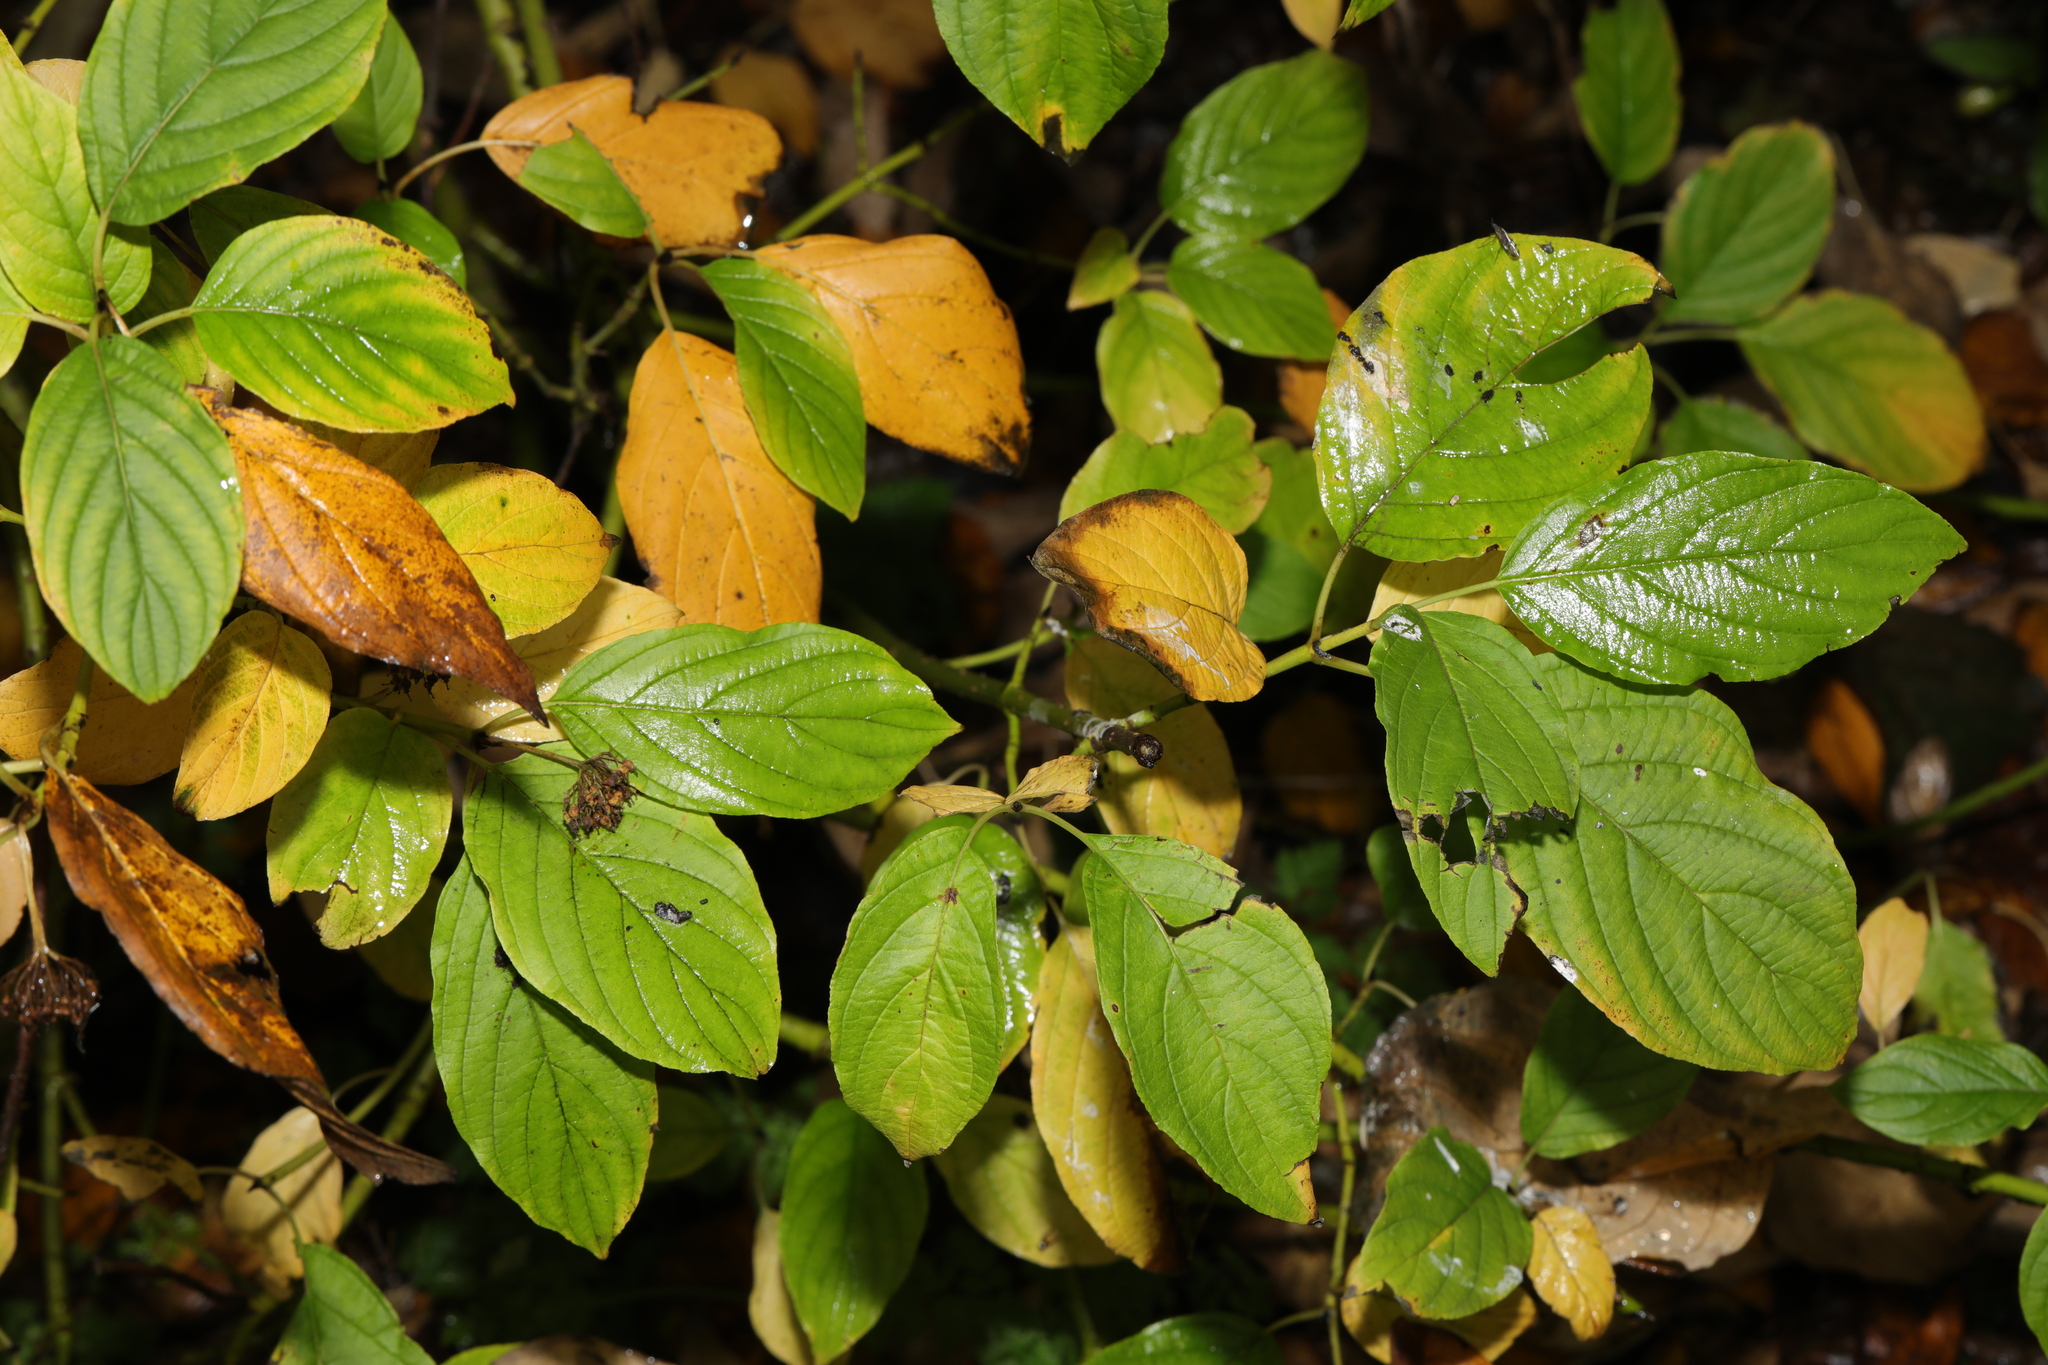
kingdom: Plantae
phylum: Tracheophyta
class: Magnoliopsida
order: Cornales
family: Cornaceae
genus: Cornus
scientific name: Cornus sericea
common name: Red-osier dogwood
